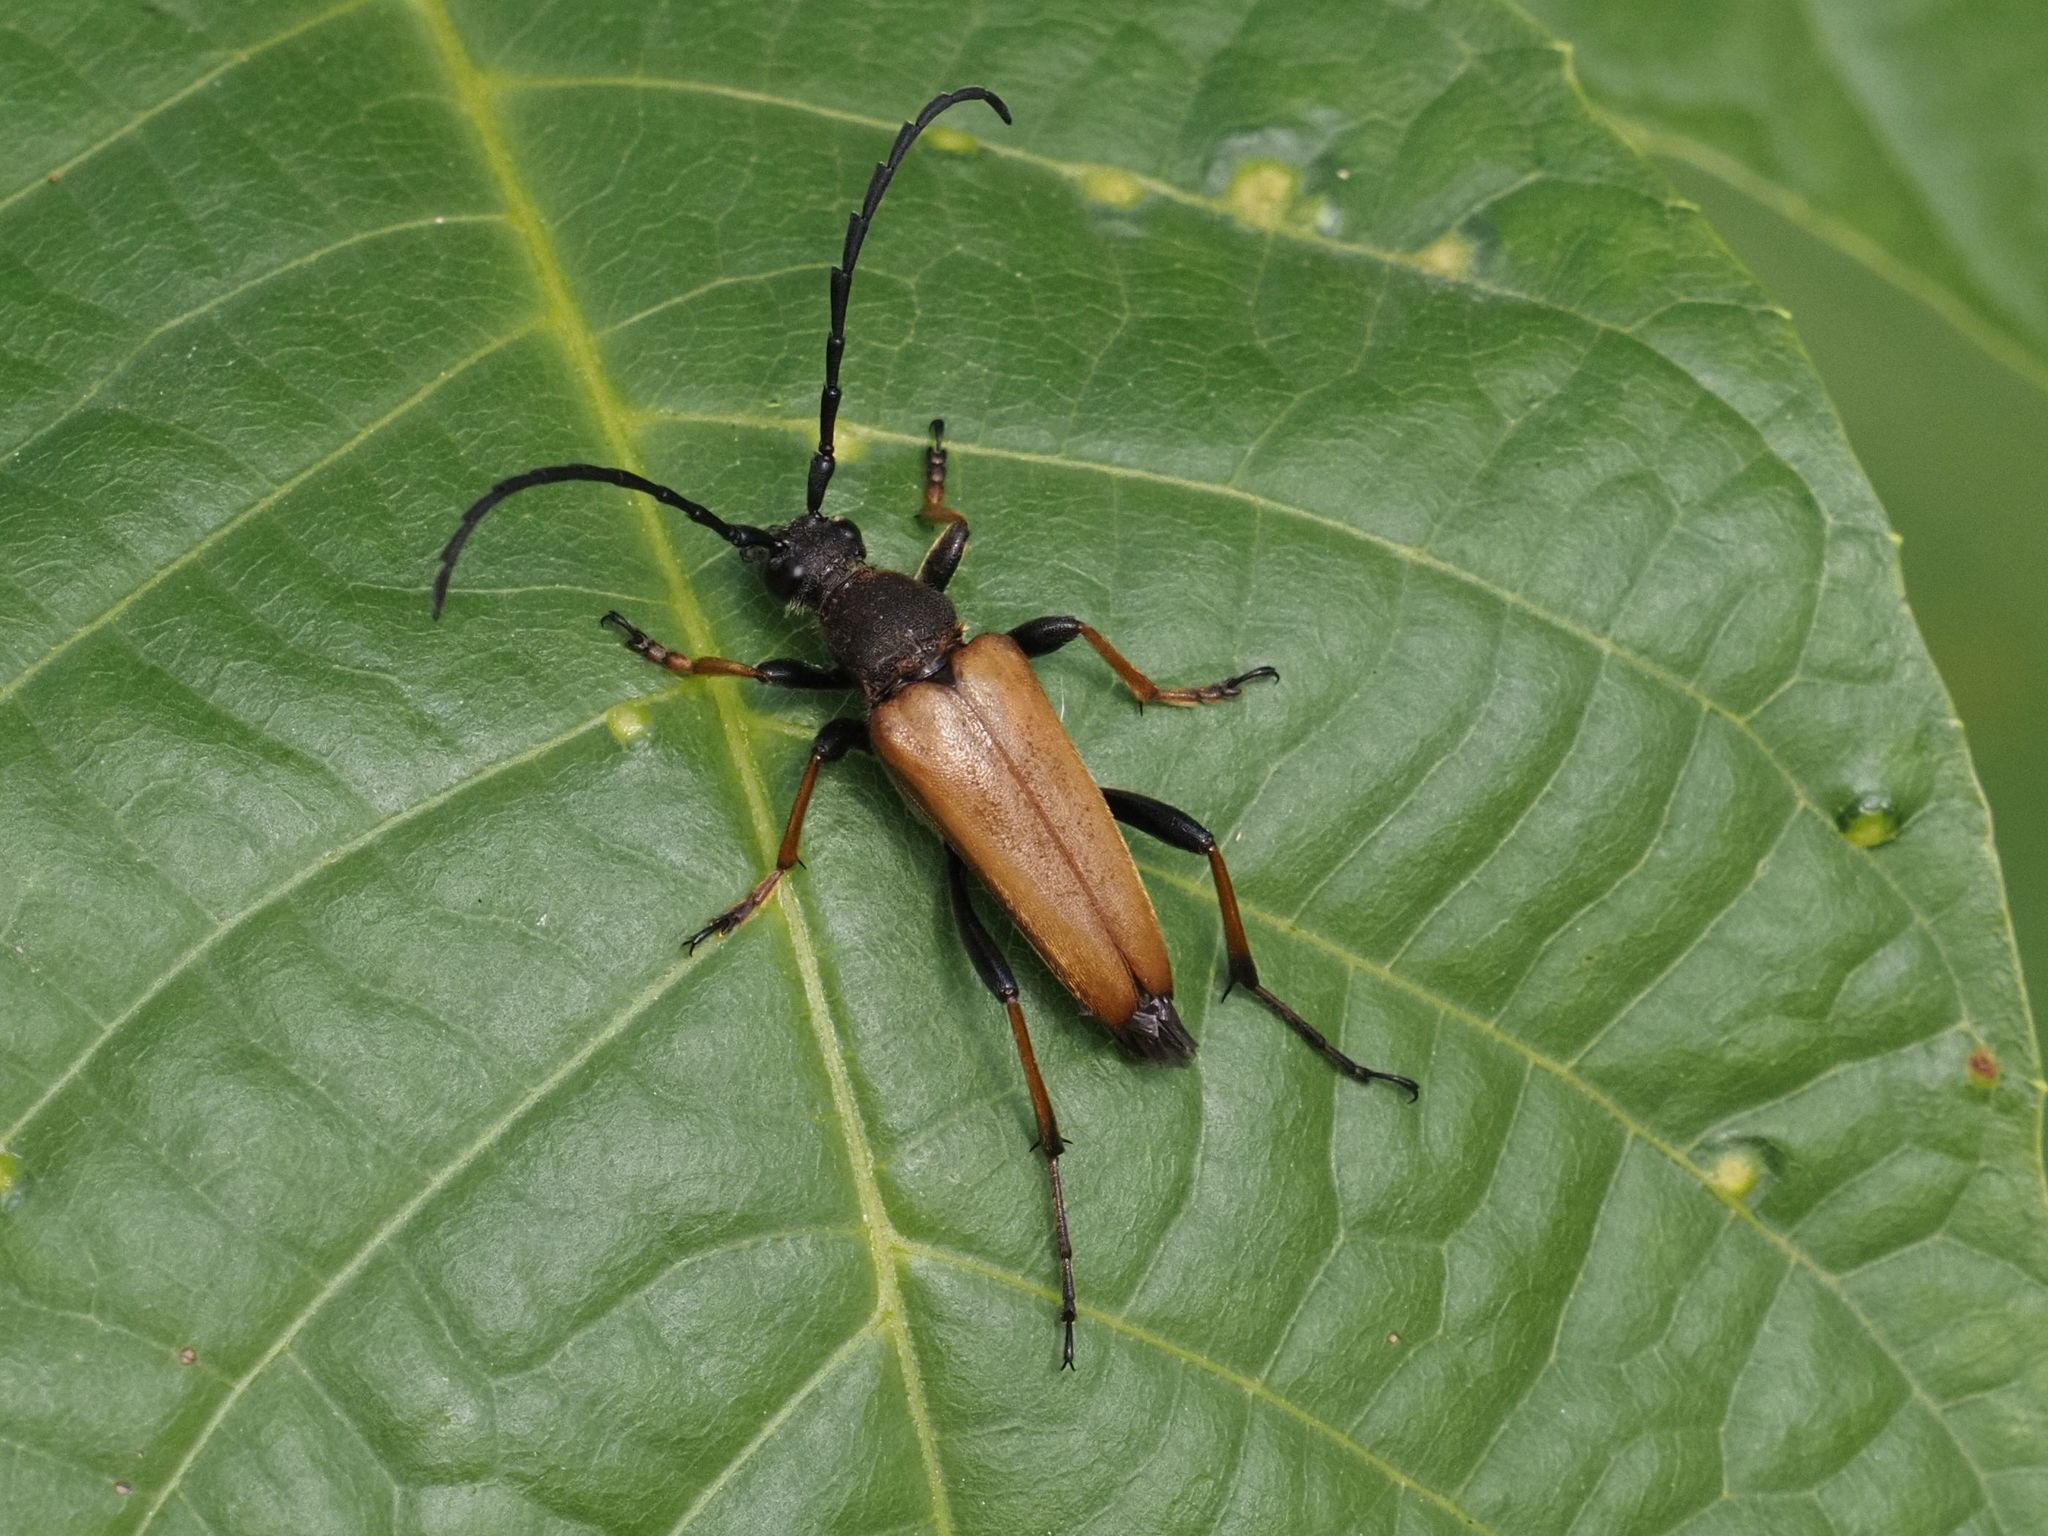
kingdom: Animalia
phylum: Arthropoda
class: Insecta
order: Coleoptera
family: Cerambycidae
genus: Stictoleptura
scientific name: Stictoleptura rubra
